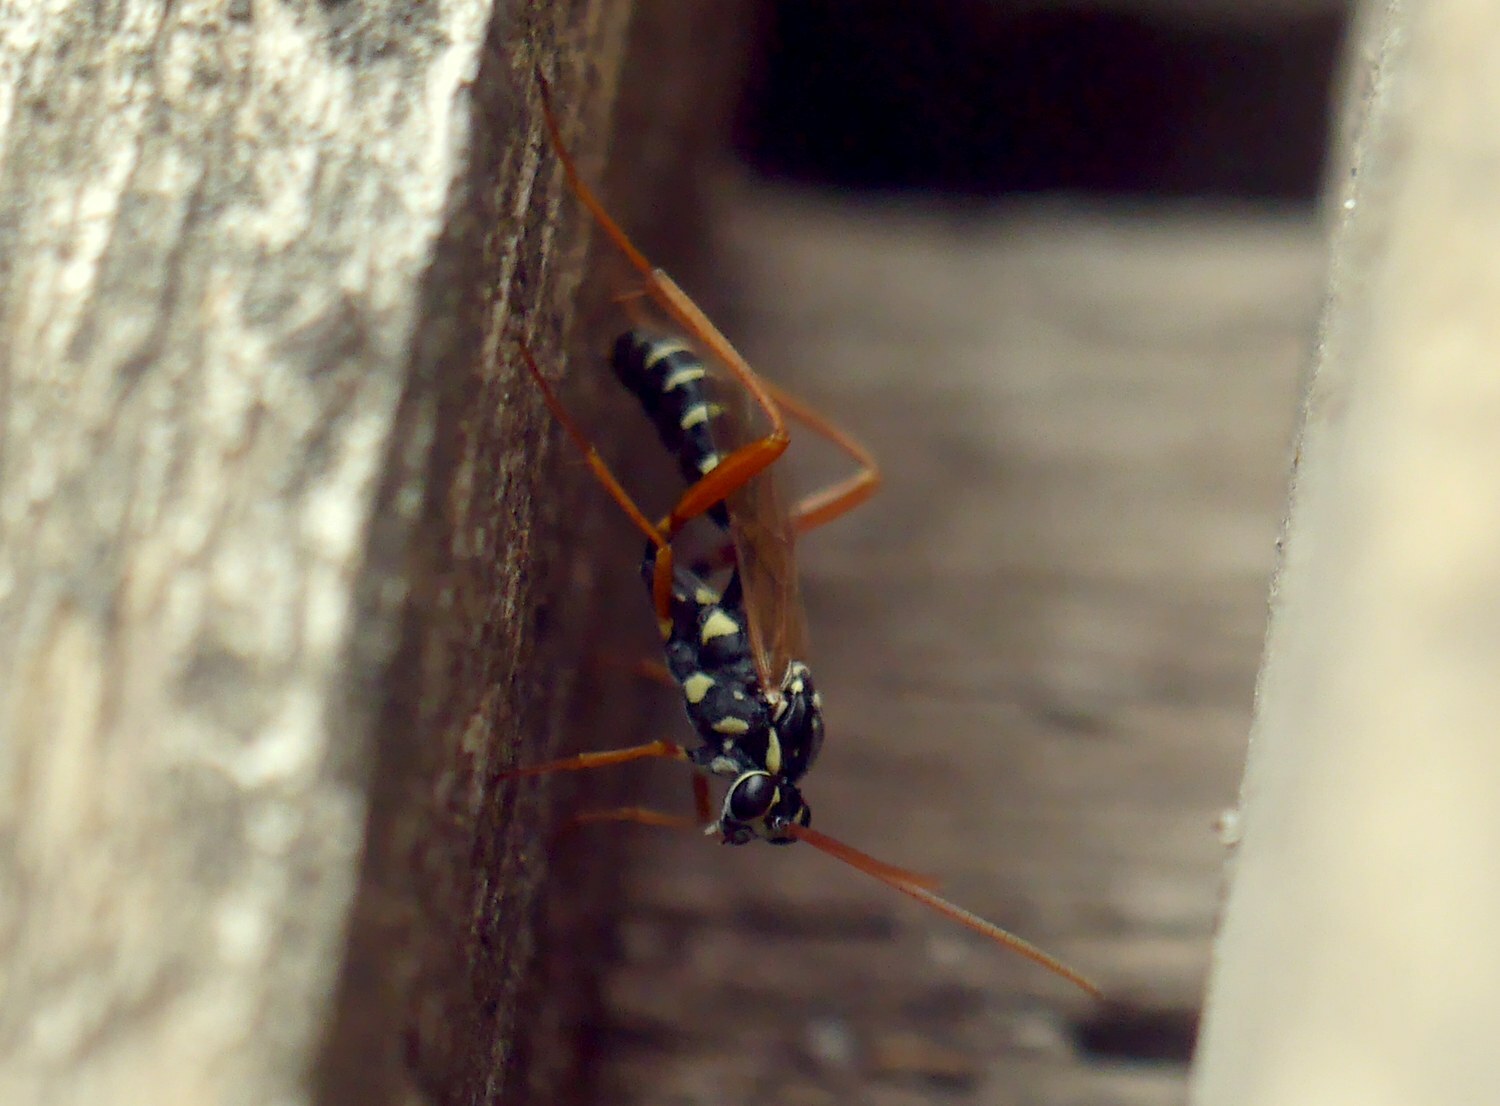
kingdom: Animalia
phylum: Arthropoda
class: Insecta
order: Hymenoptera
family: Ichneumonidae
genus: Latibulus
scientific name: Latibulus argiolus
